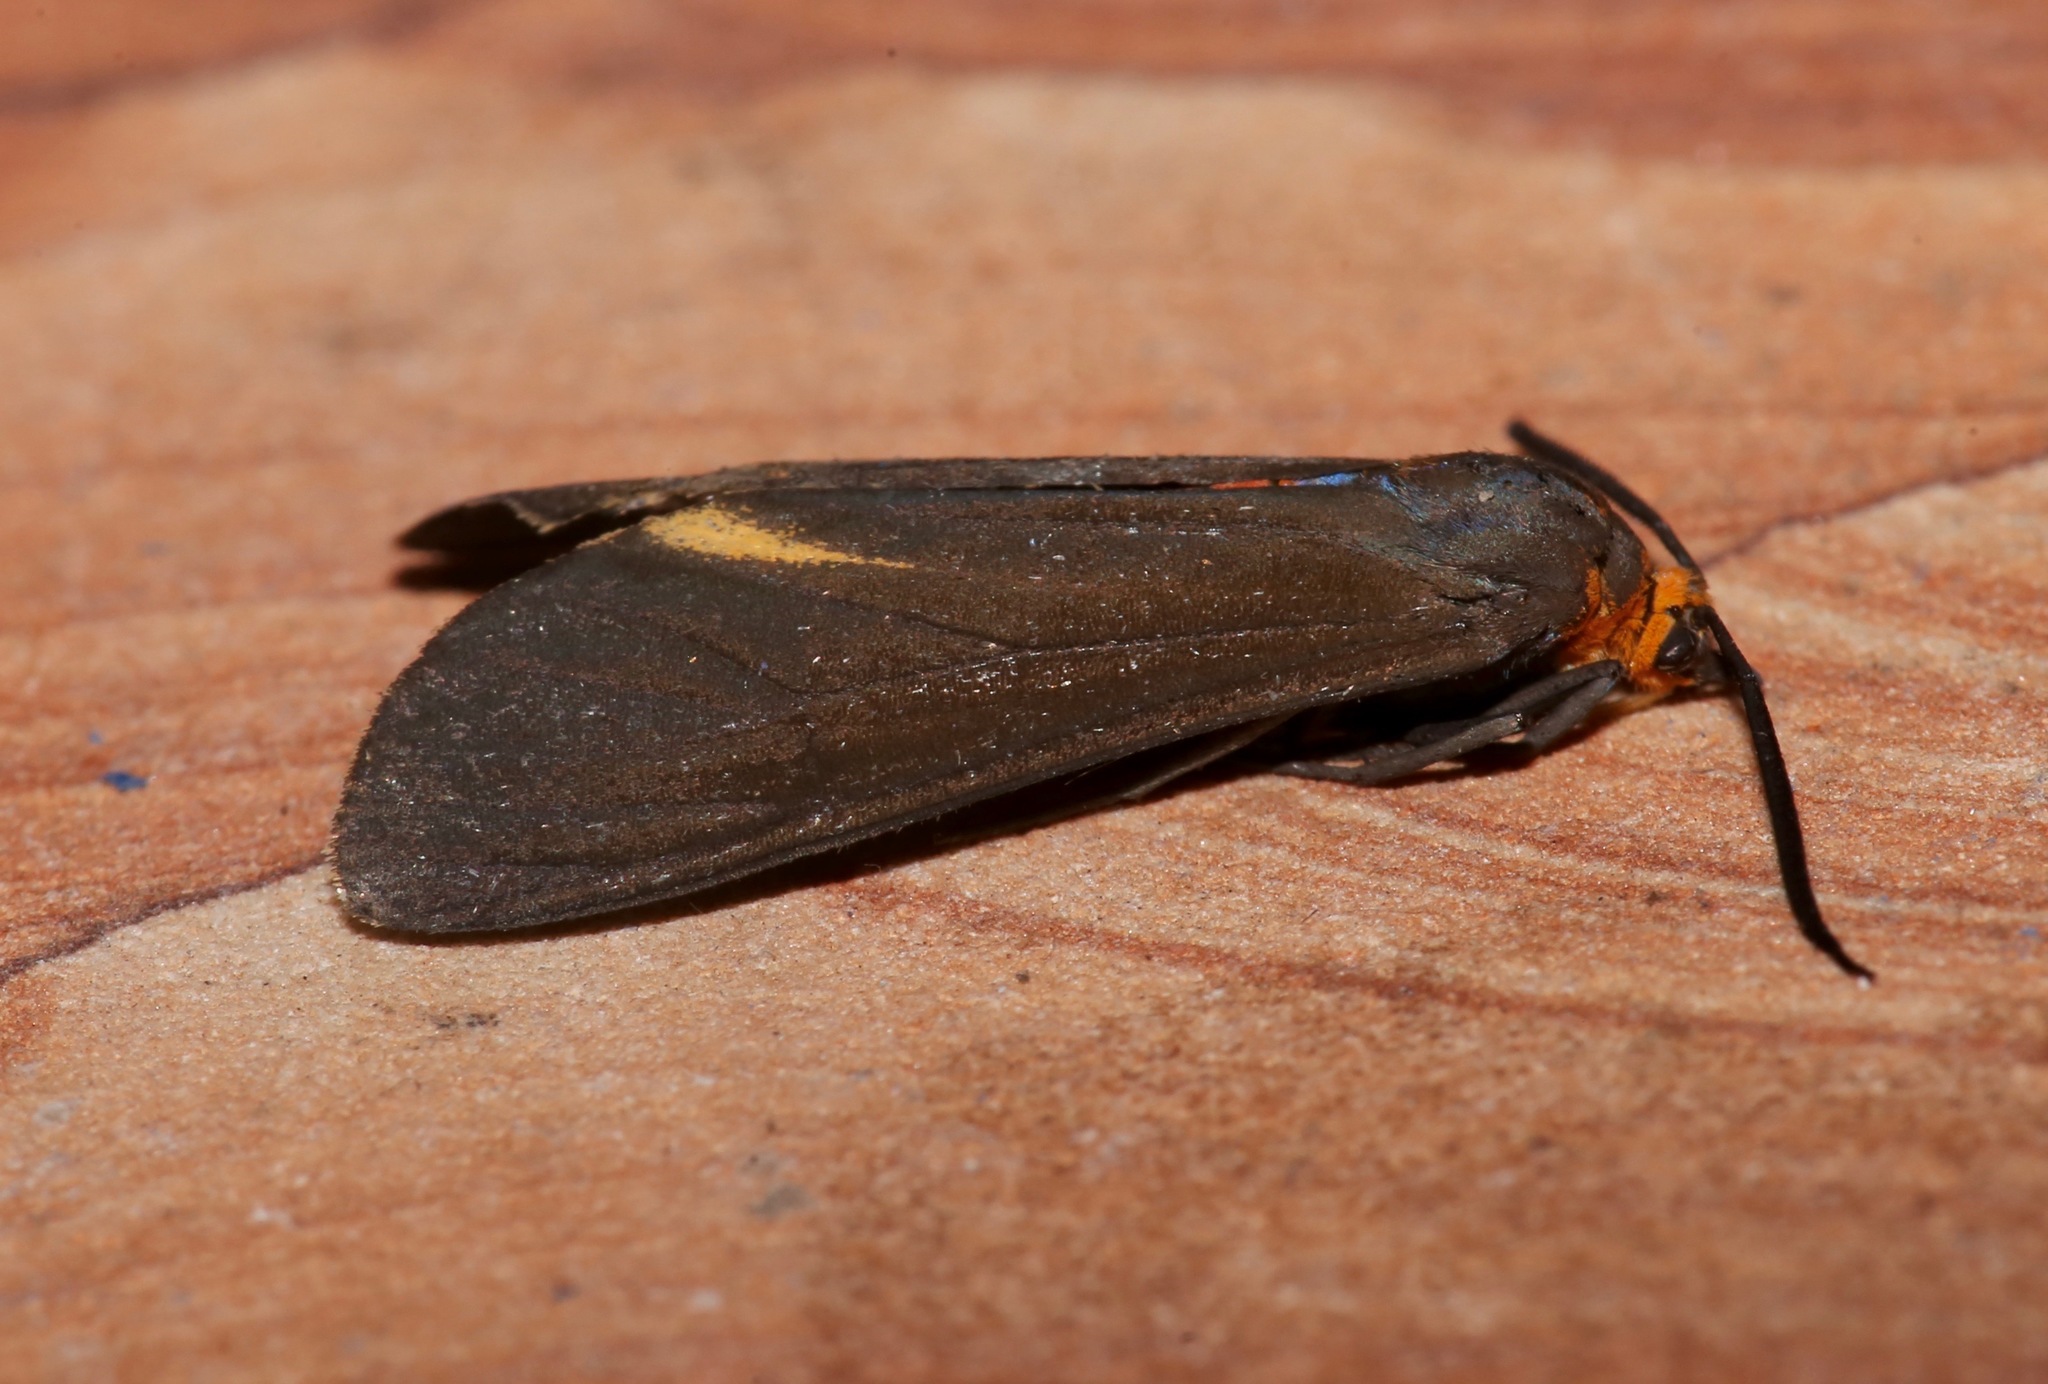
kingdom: Animalia
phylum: Arthropoda
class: Insecta
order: Lepidoptera
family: Erebidae
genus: Dahana
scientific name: Dahana atripennis
